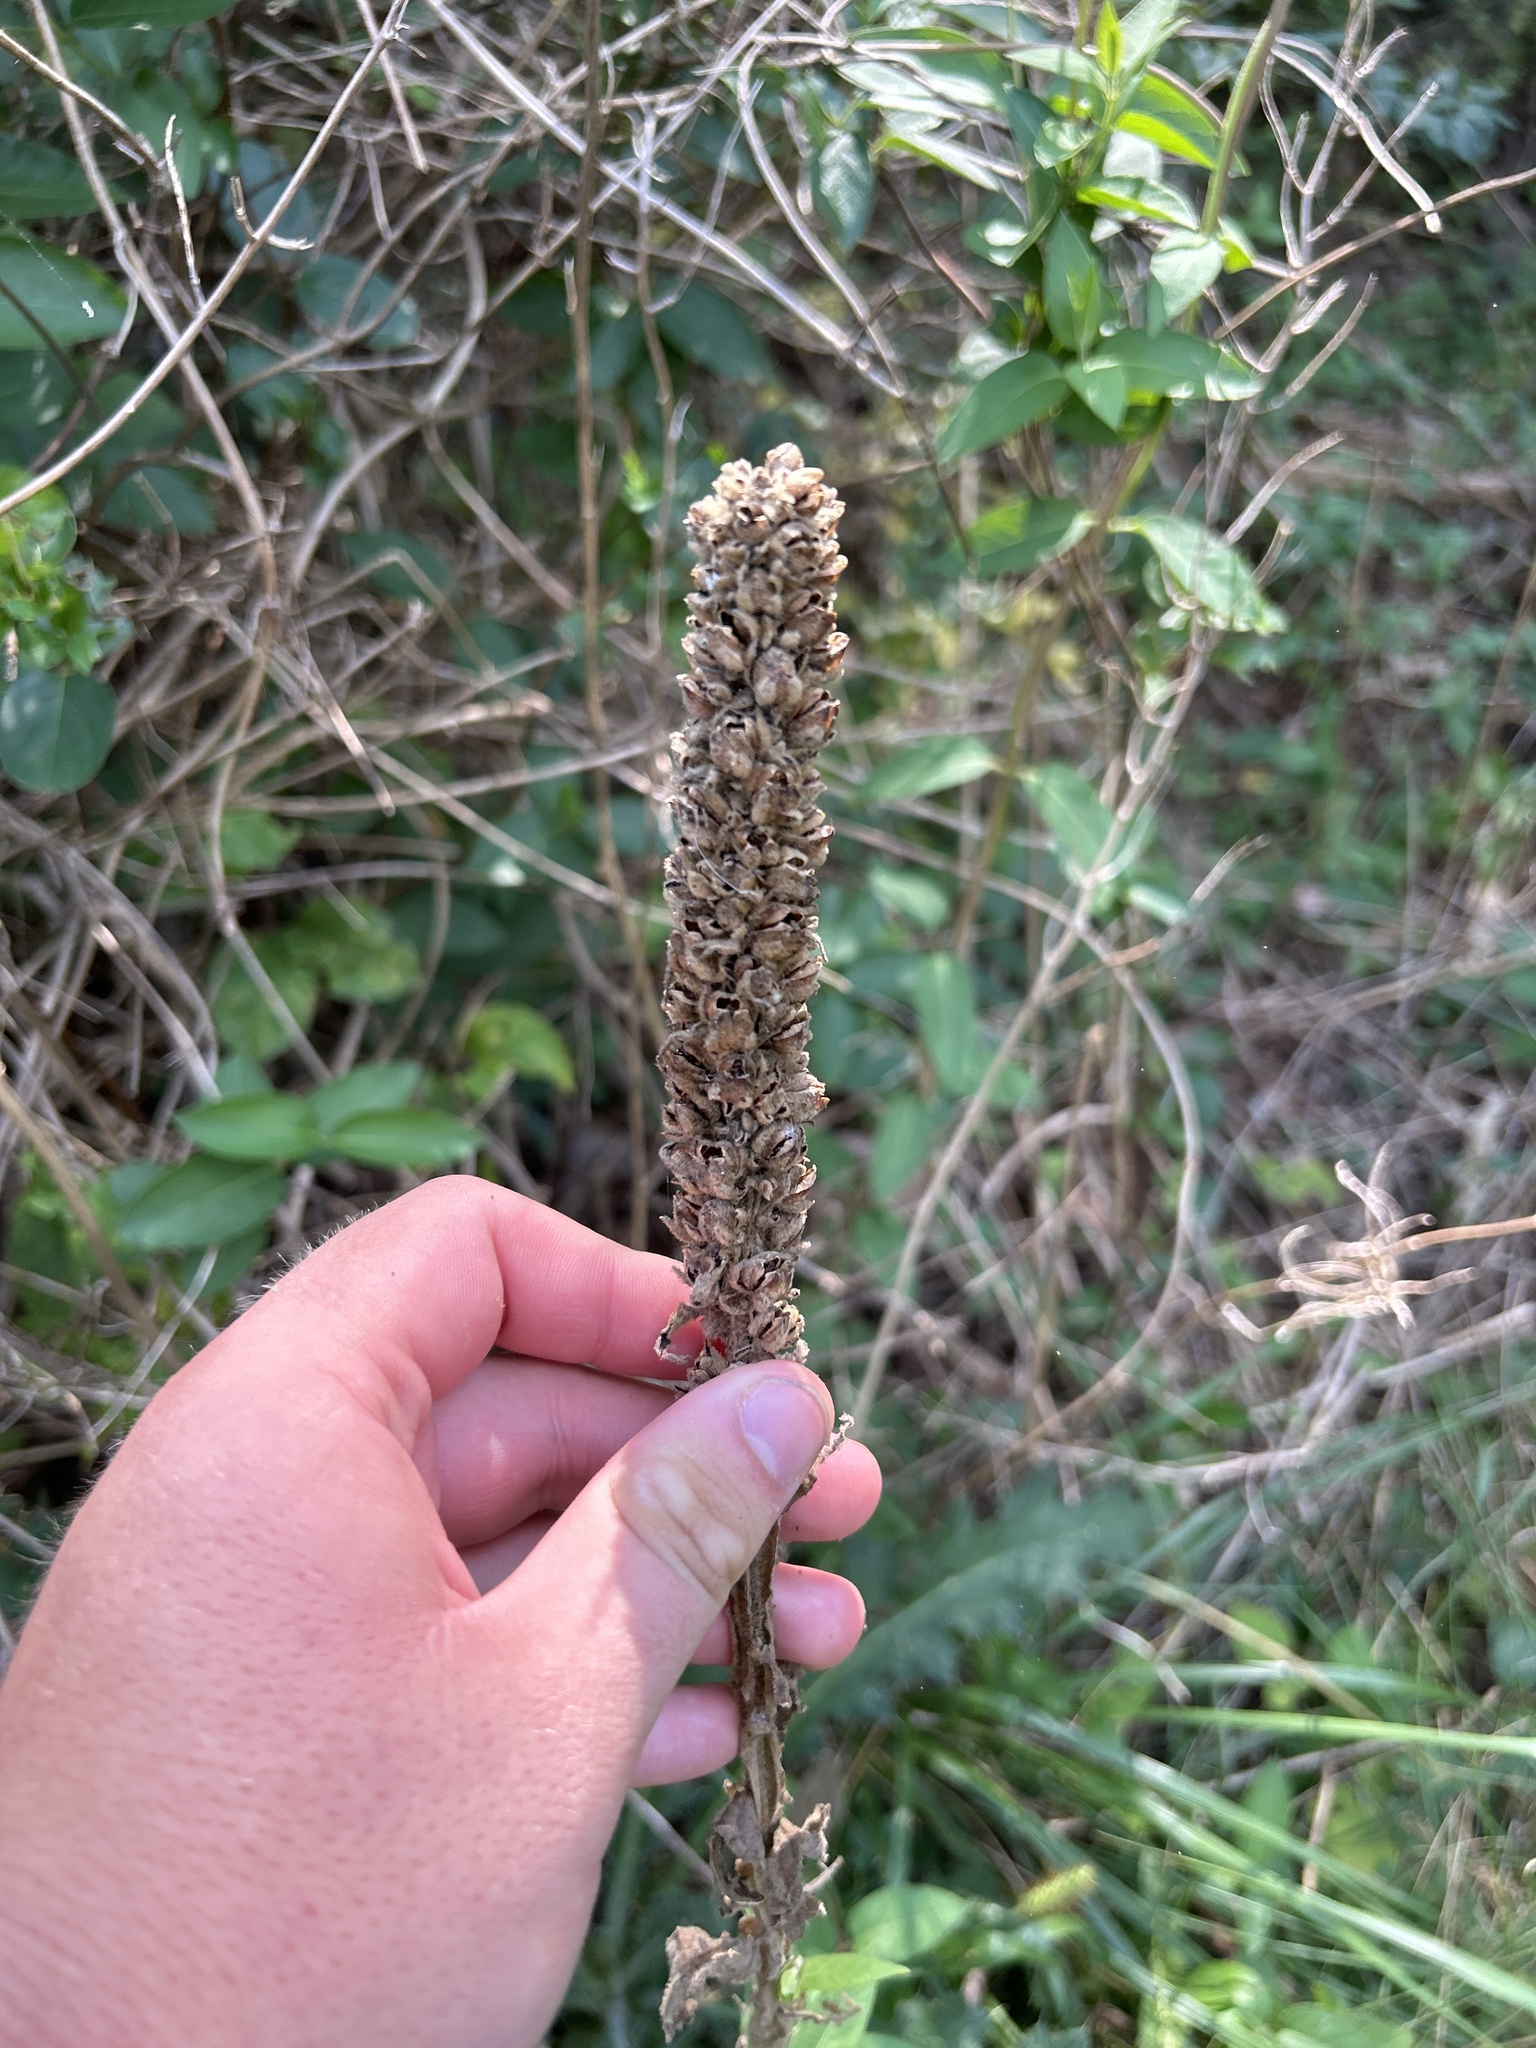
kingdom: Plantae
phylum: Tracheophyta
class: Magnoliopsida
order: Lamiales
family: Scrophulariaceae
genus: Verbascum
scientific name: Verbascum thapsus
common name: Common mullein
